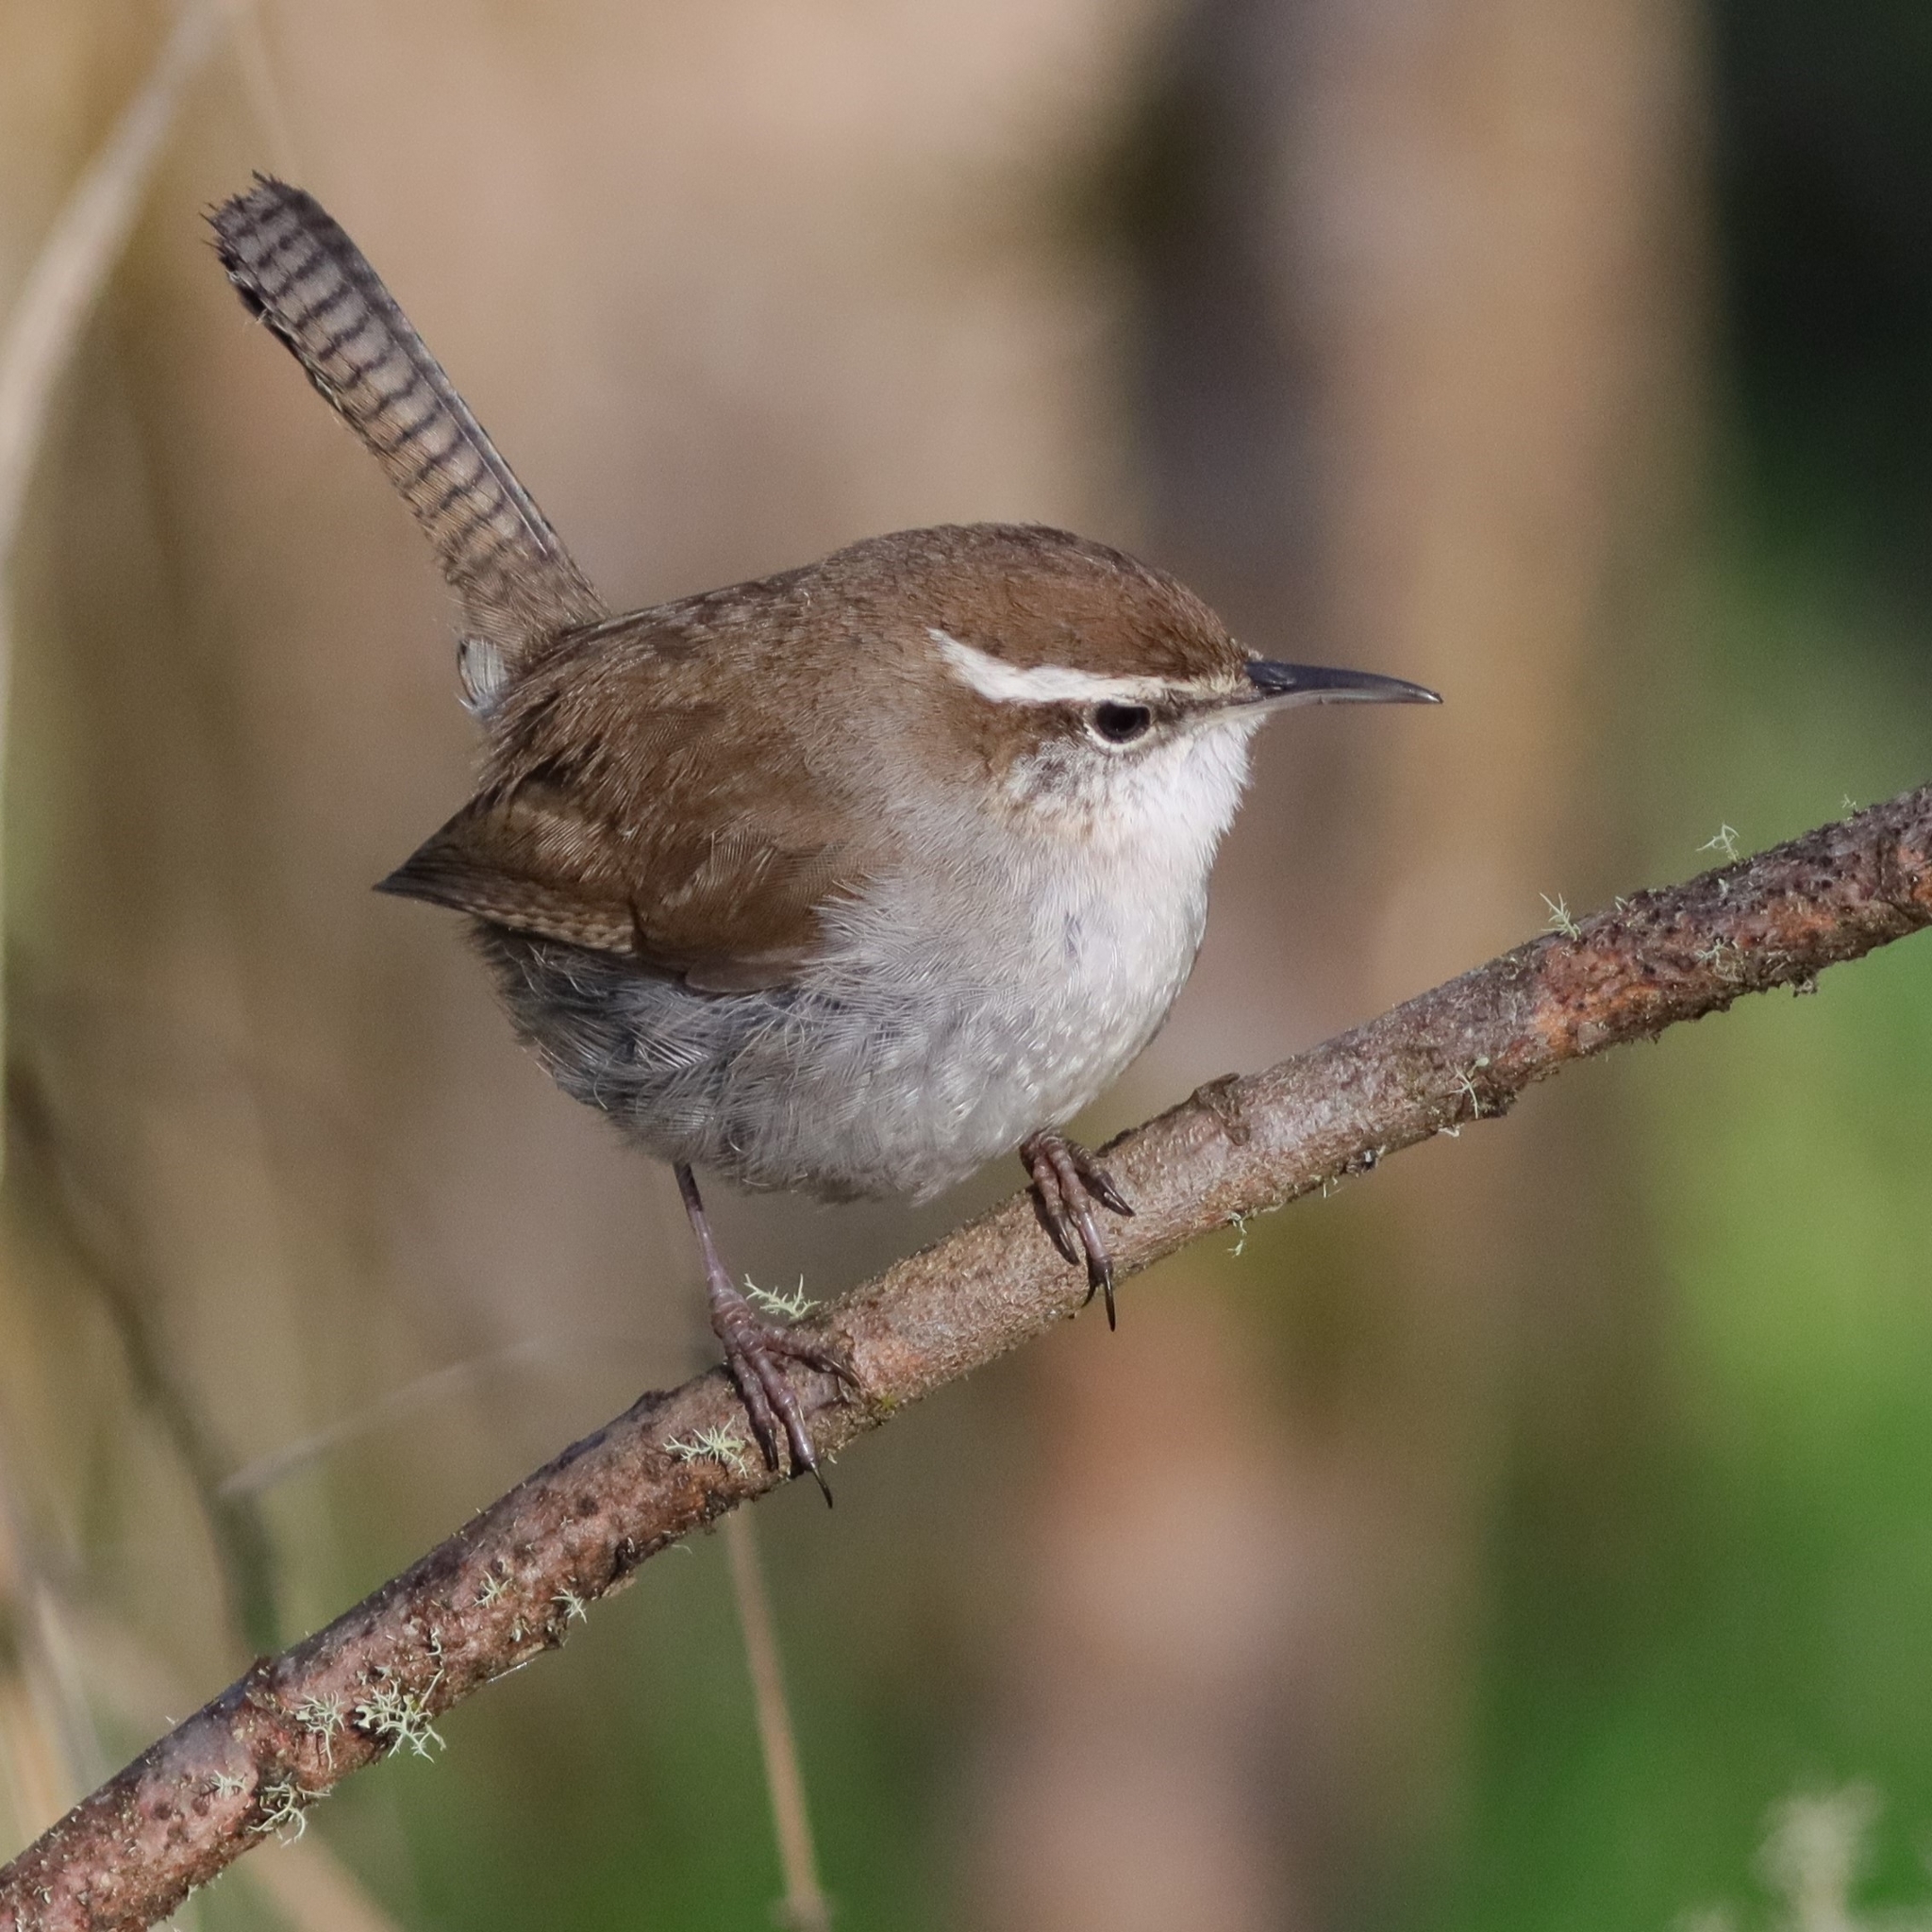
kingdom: Animalia
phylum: Chordata
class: Aves
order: Passeriformes
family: Troglodytidae
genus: Thryomanes
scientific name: Thryomanes bewickii
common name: Bewick's wren
